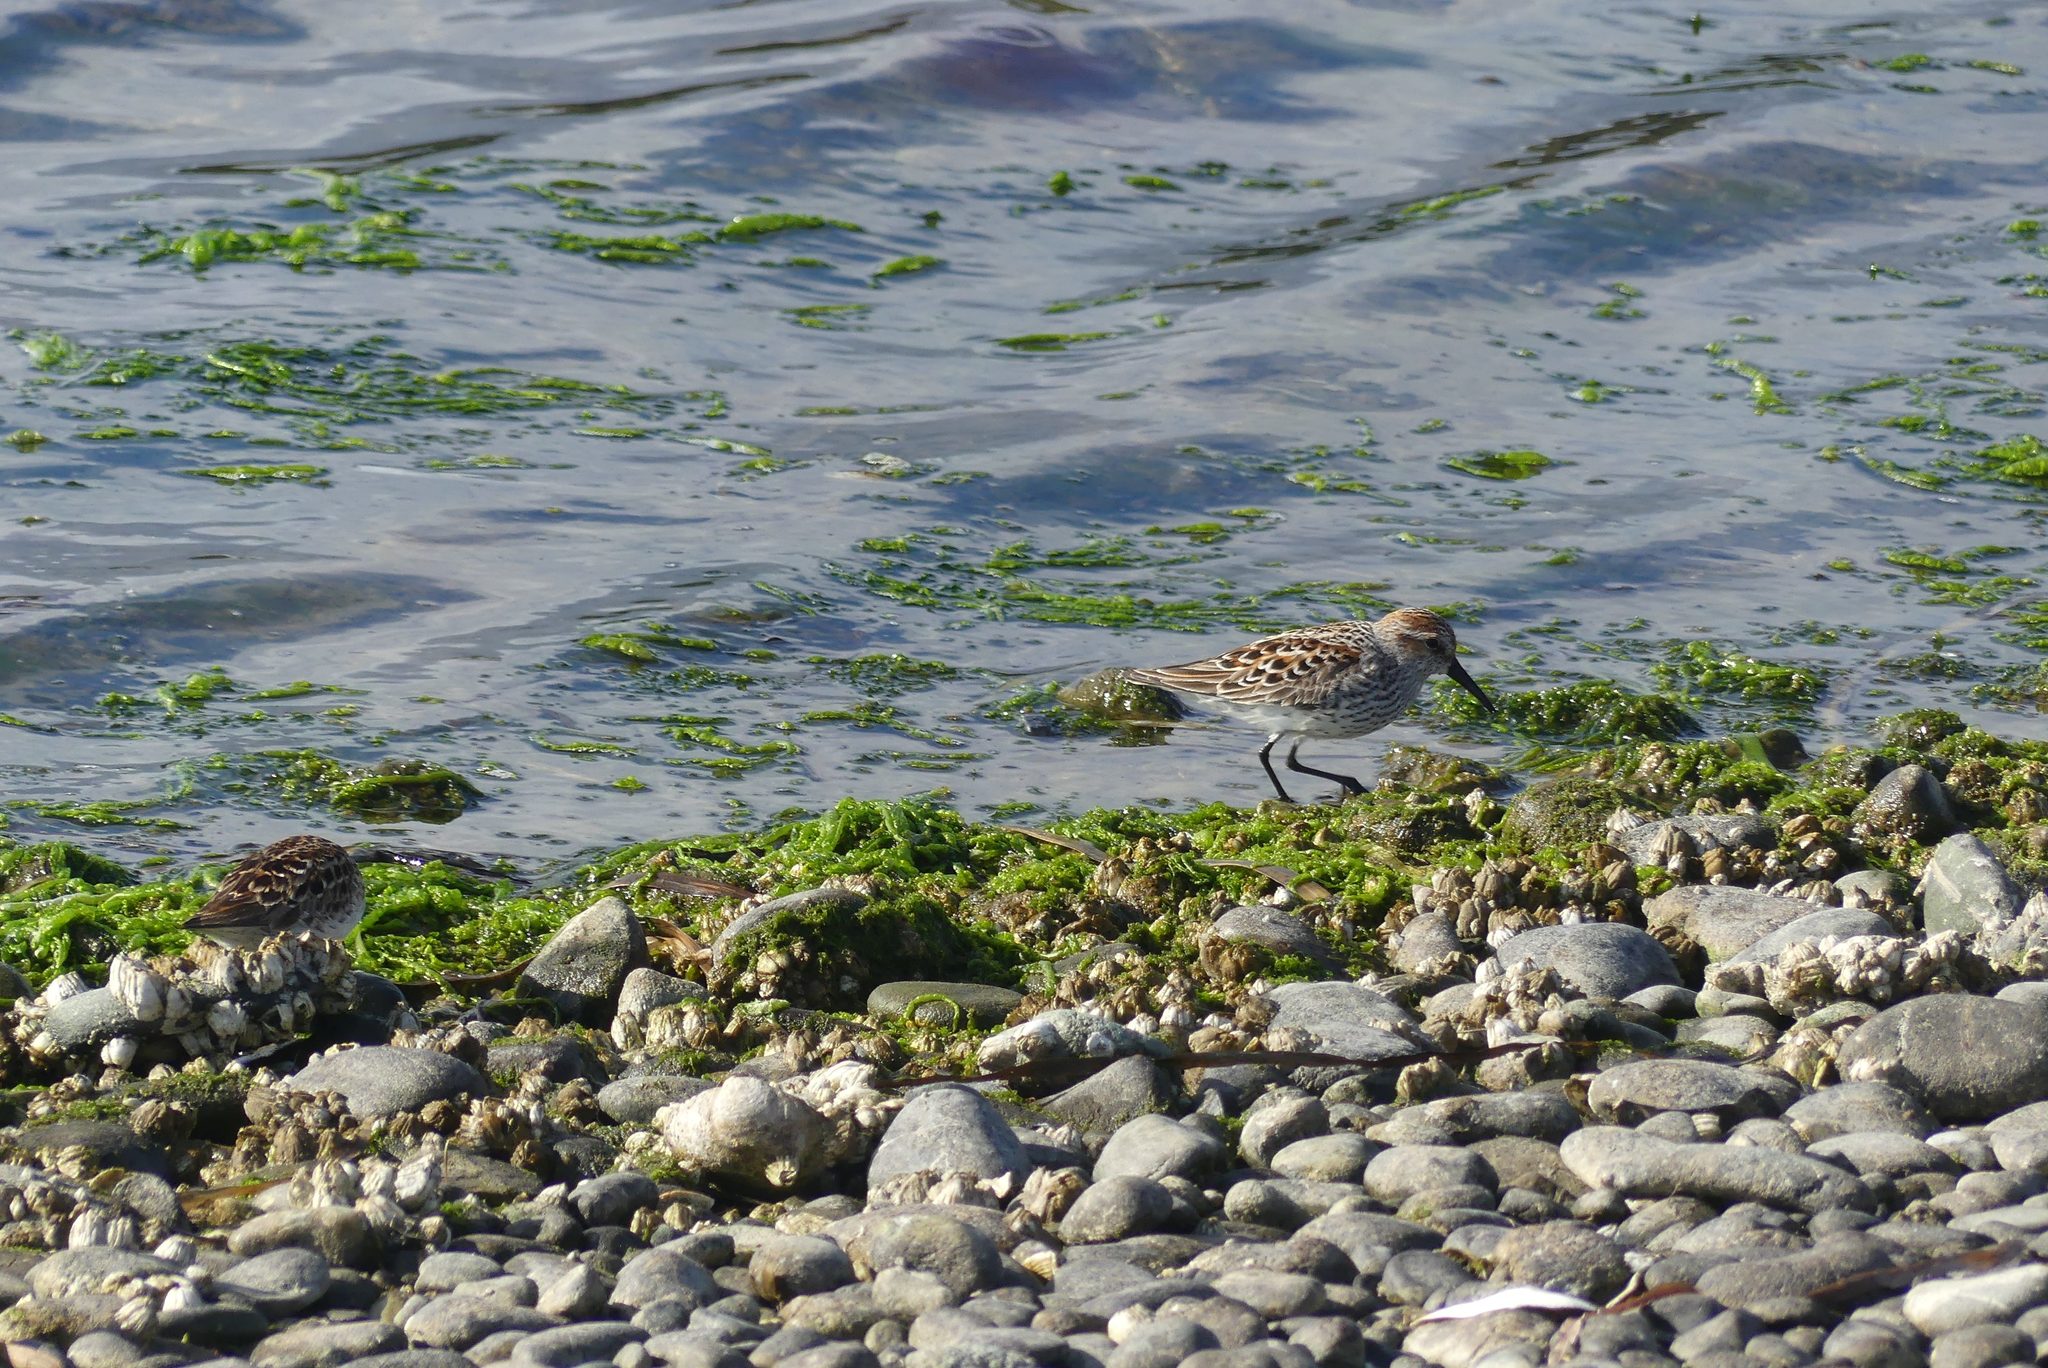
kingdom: Animalia
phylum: Chordata
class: Aves
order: Charadriiformes
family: Scolopacidae
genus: Calidris
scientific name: Calidris mauri
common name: Western sandpiper
